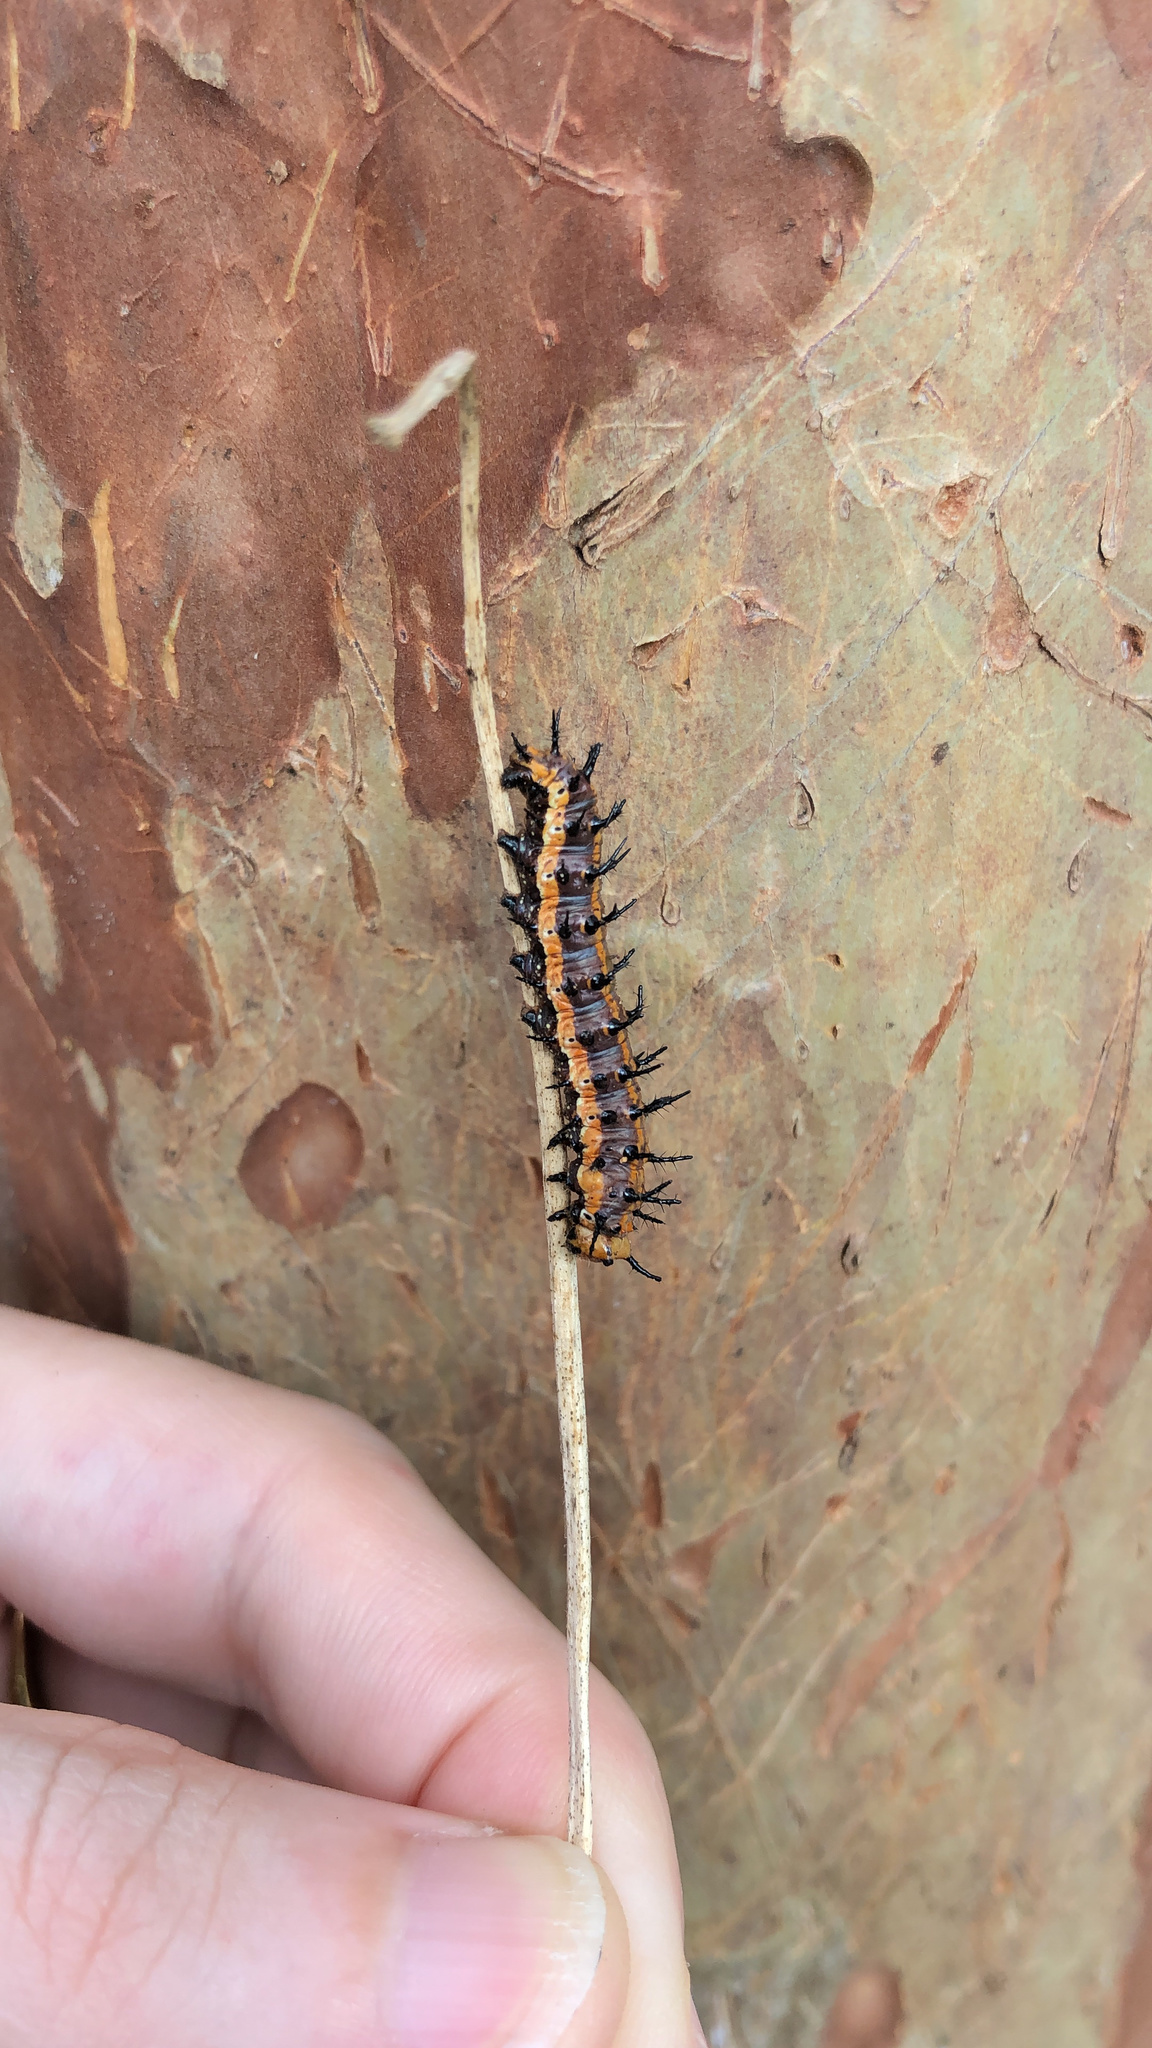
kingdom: Animalia
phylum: Arthropoda
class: Insecta
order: Lepidoptera
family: Nymphalidae
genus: Dione
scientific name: Dione vanillae
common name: Gulf fritillary
